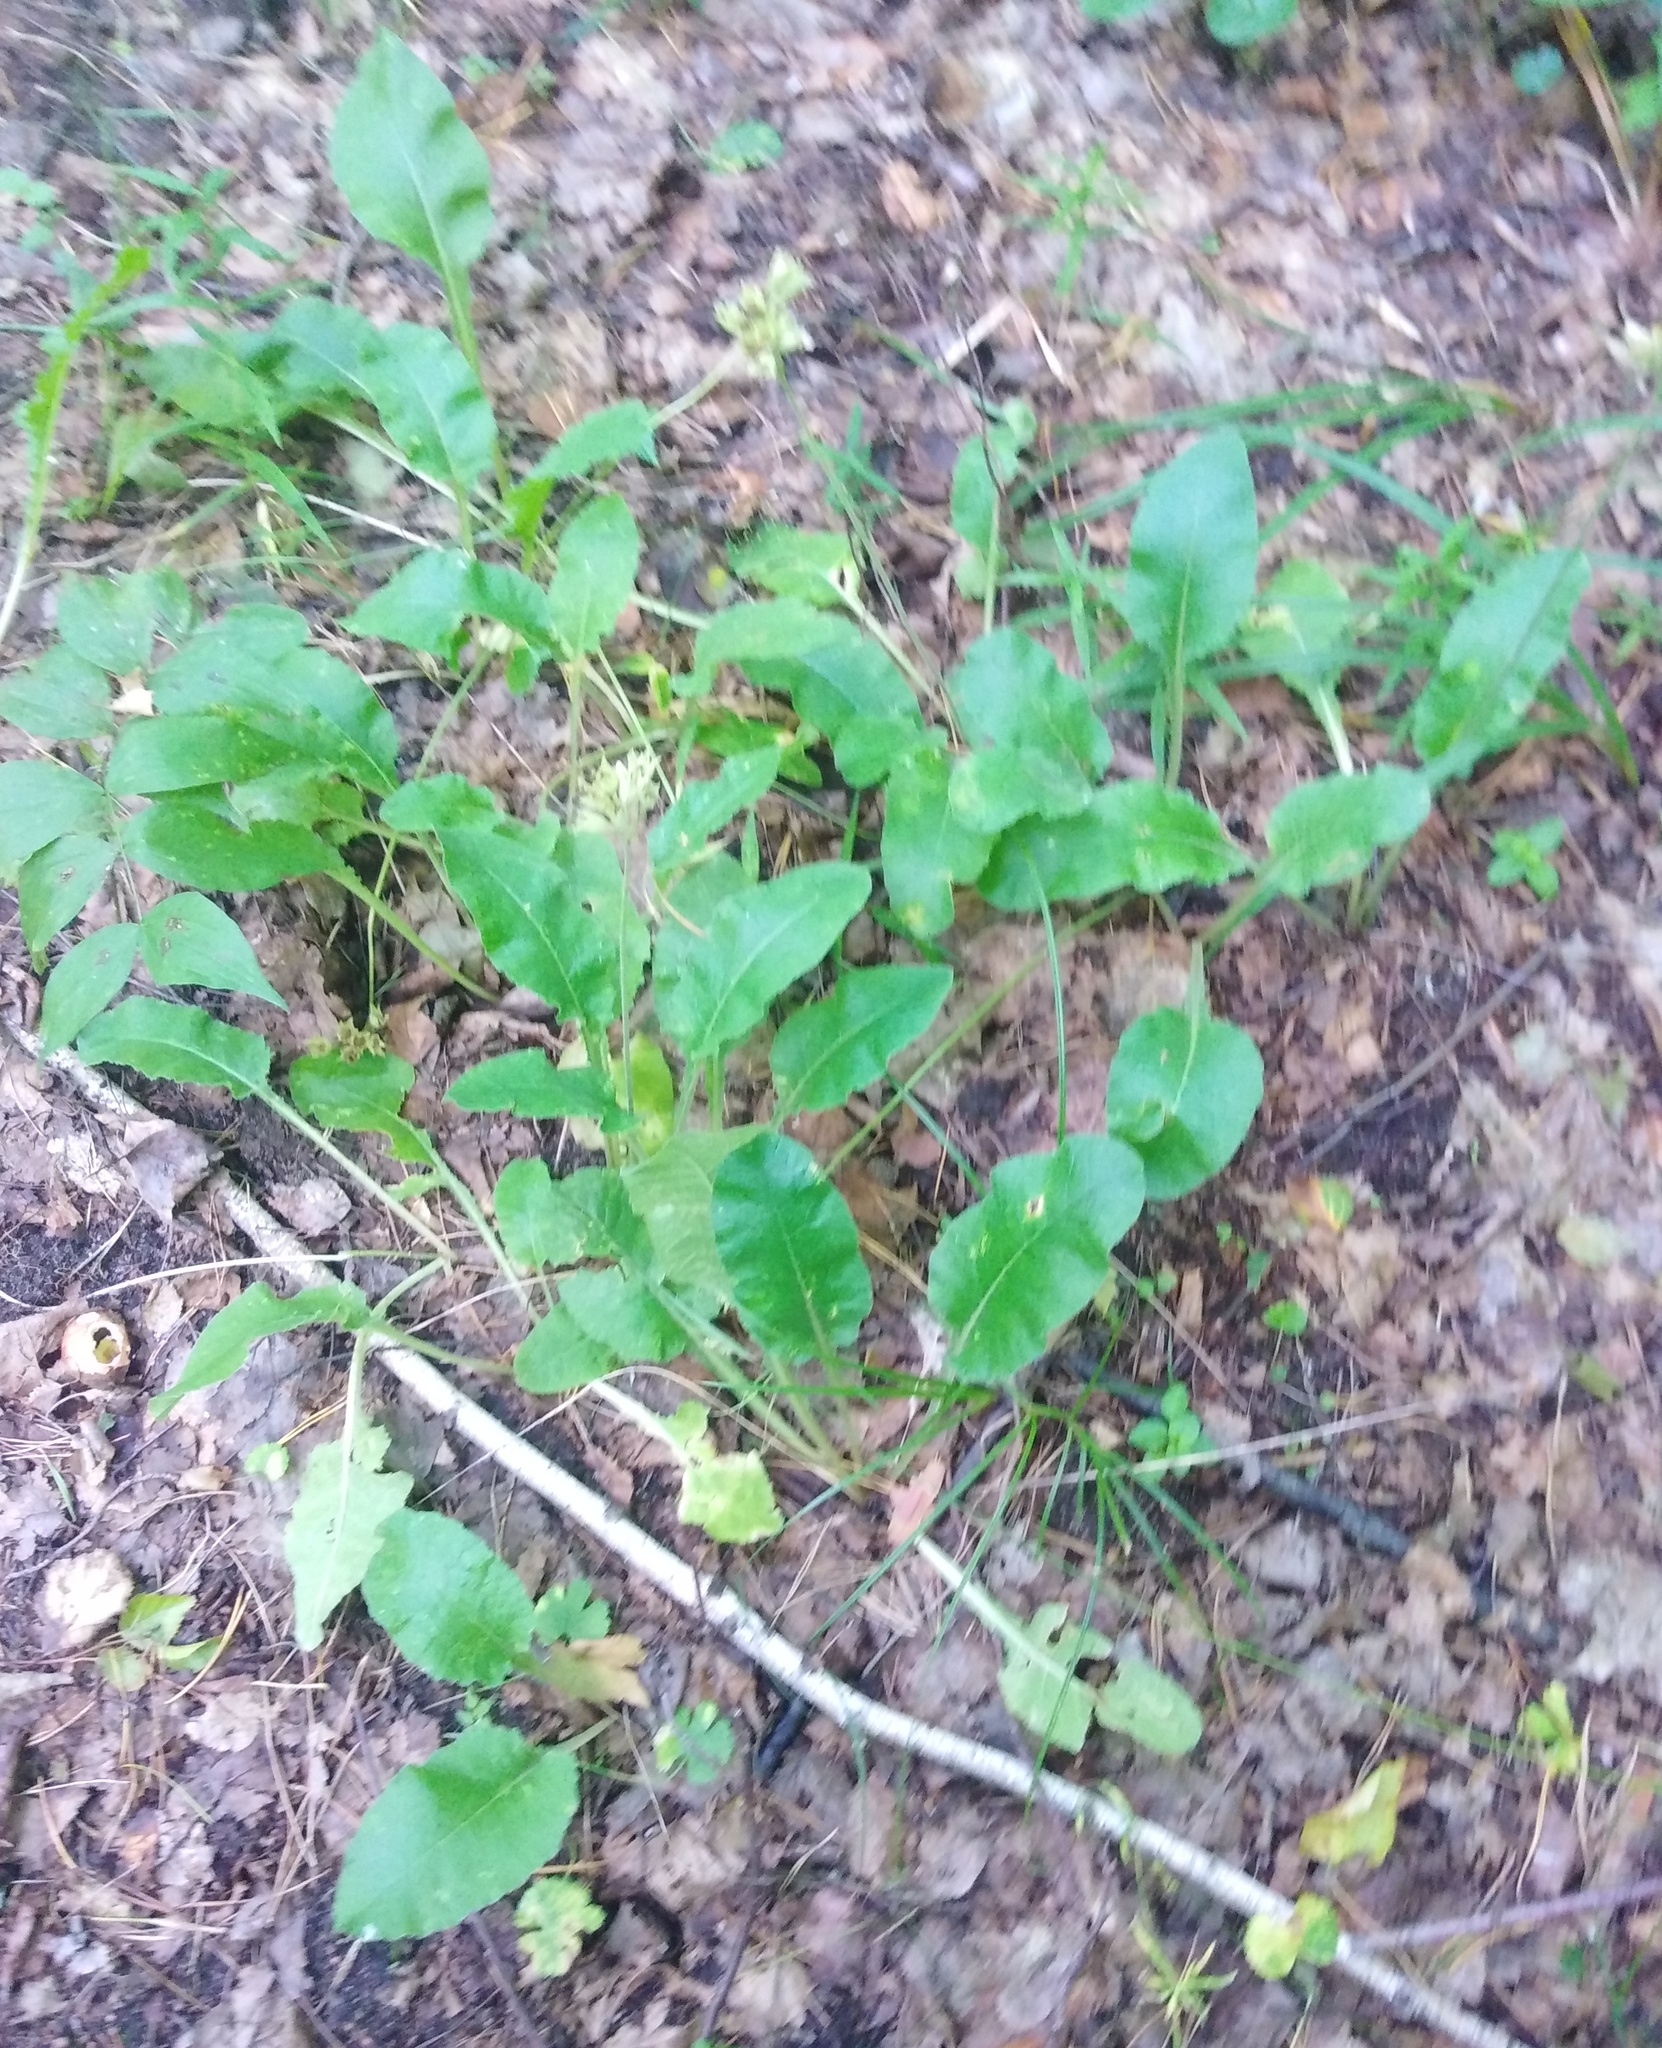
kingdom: Plantae
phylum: Tracheophyta
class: Magnoliopsida
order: Ericales
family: Primulaceae
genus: Primula
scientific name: Primula veris
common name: Cowslip
